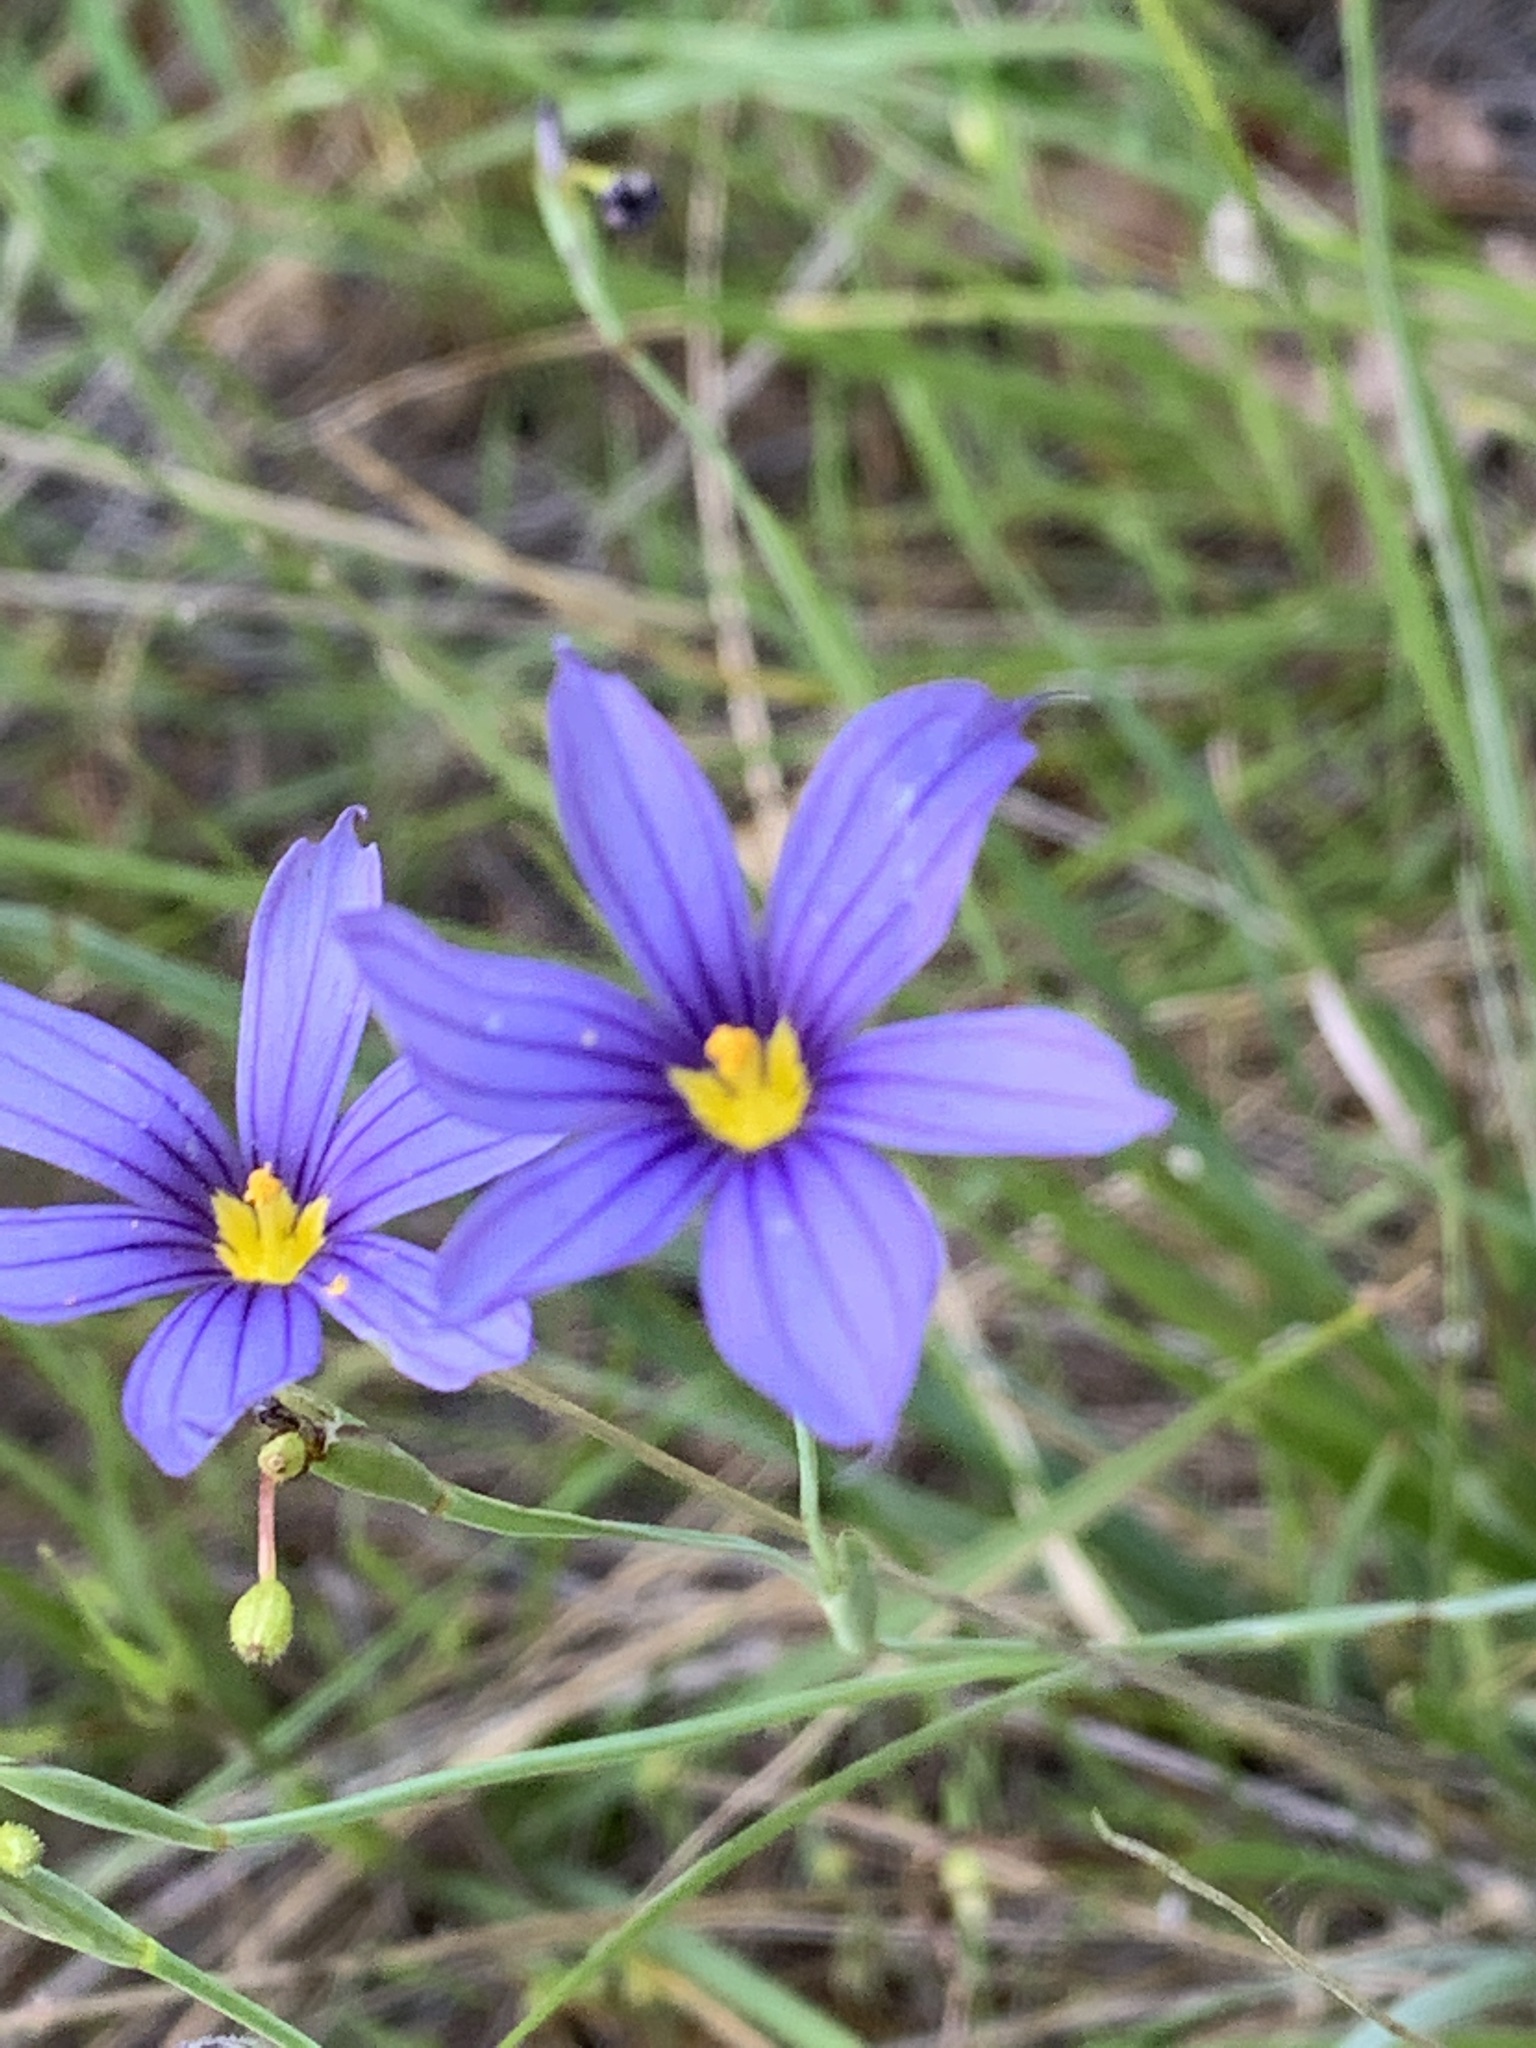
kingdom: Plantae
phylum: Tracheophyta
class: Liliopsida
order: Asparagales
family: Iridaceae
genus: Sisyrinchium
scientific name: Sisyrinchium bellum
